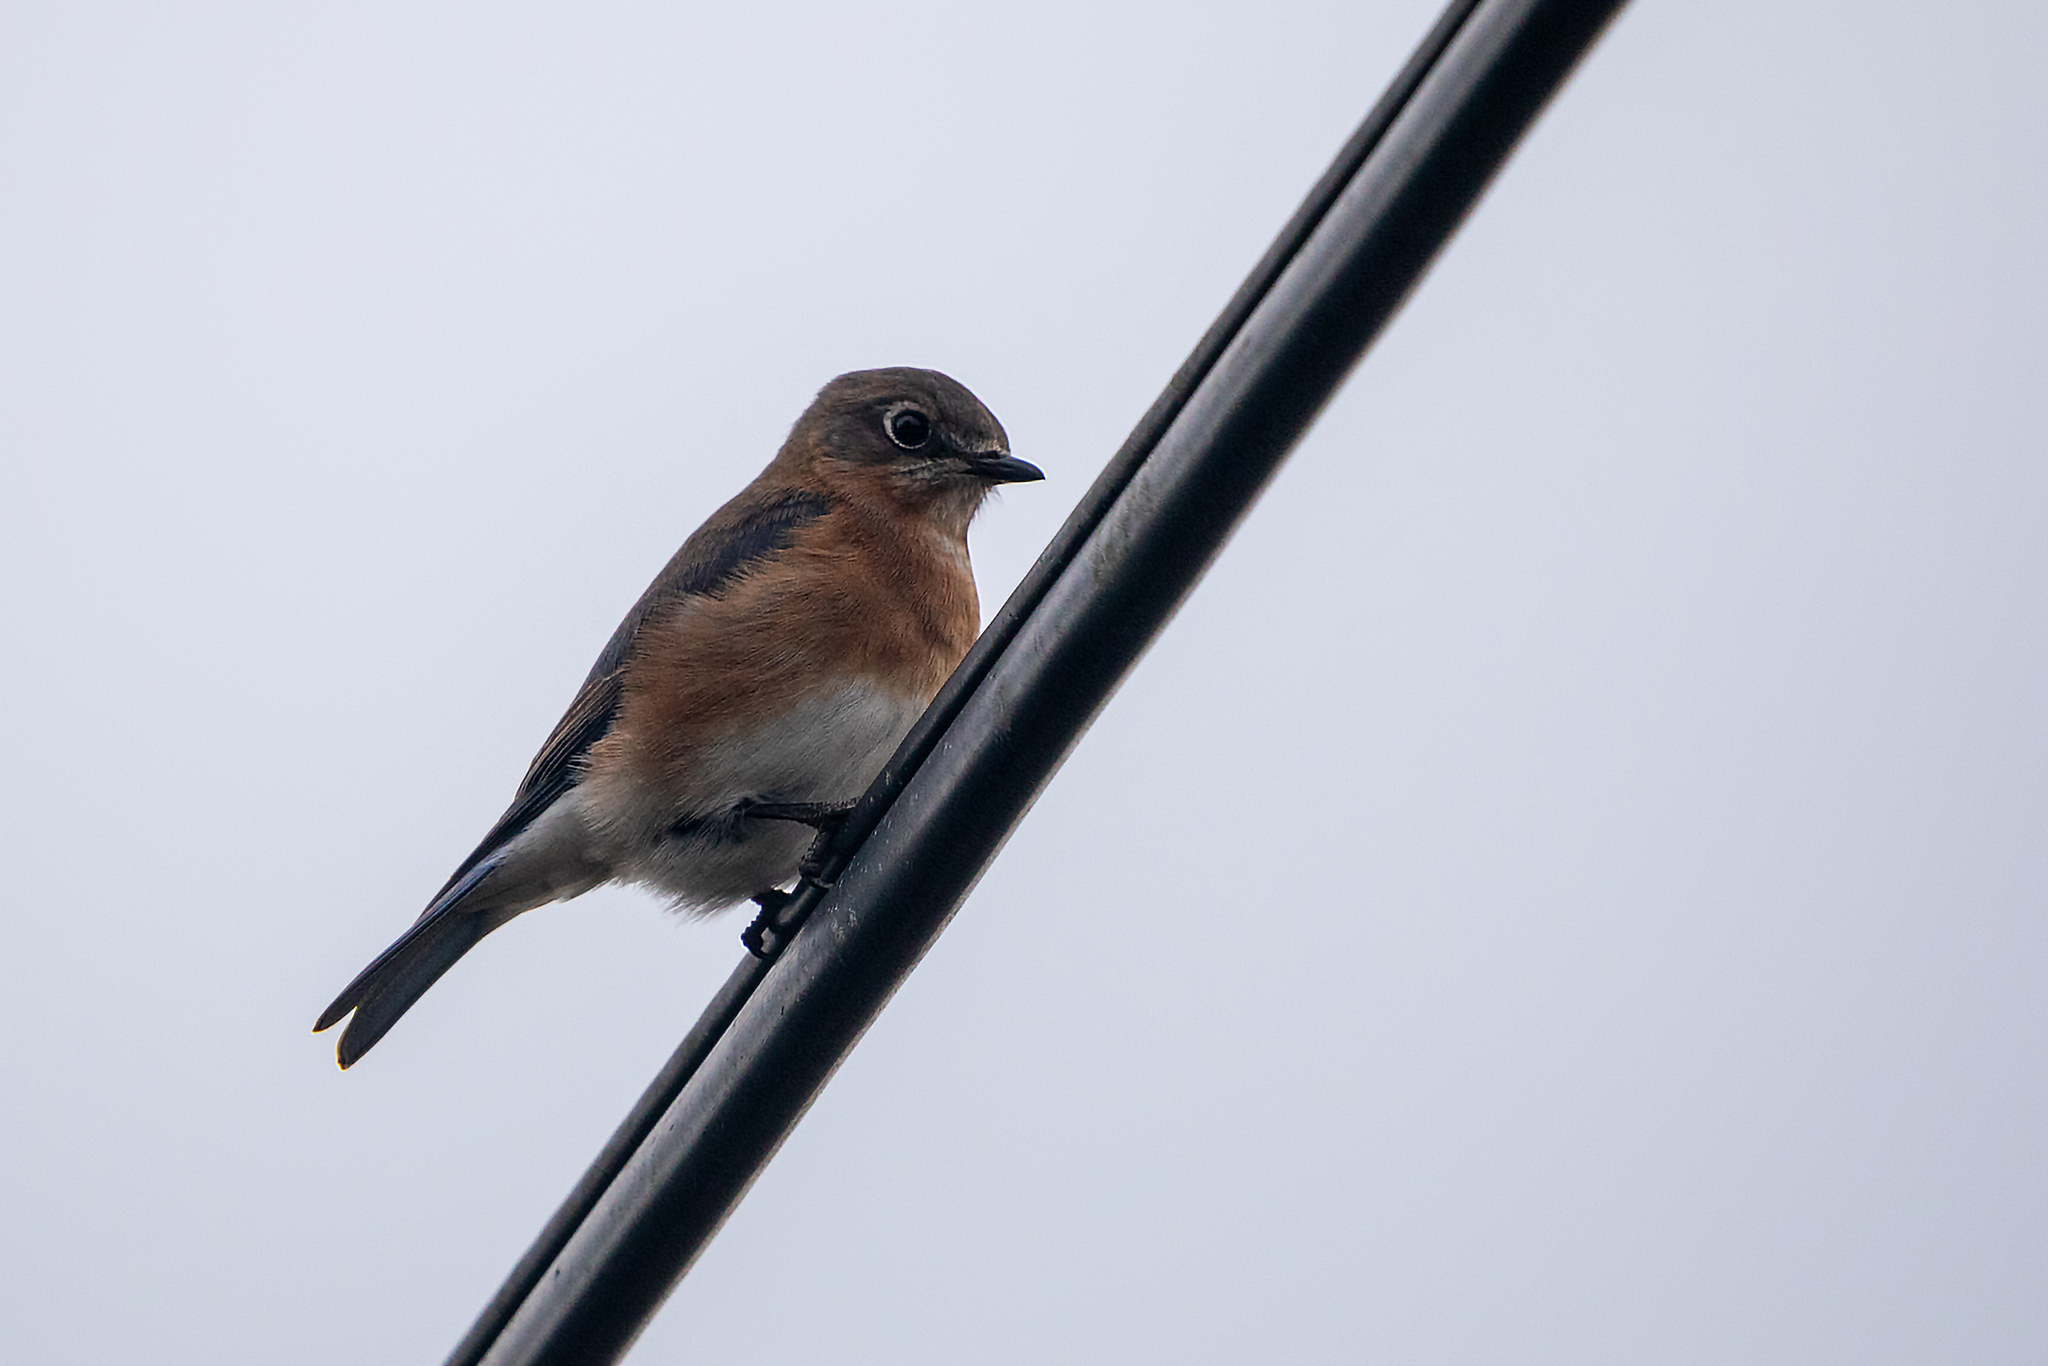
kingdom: Animalia
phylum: Chordata
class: Aves
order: Passeriformes
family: Turdidae
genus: Sialia
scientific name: Sialia sialis
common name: Eastern bluebird
